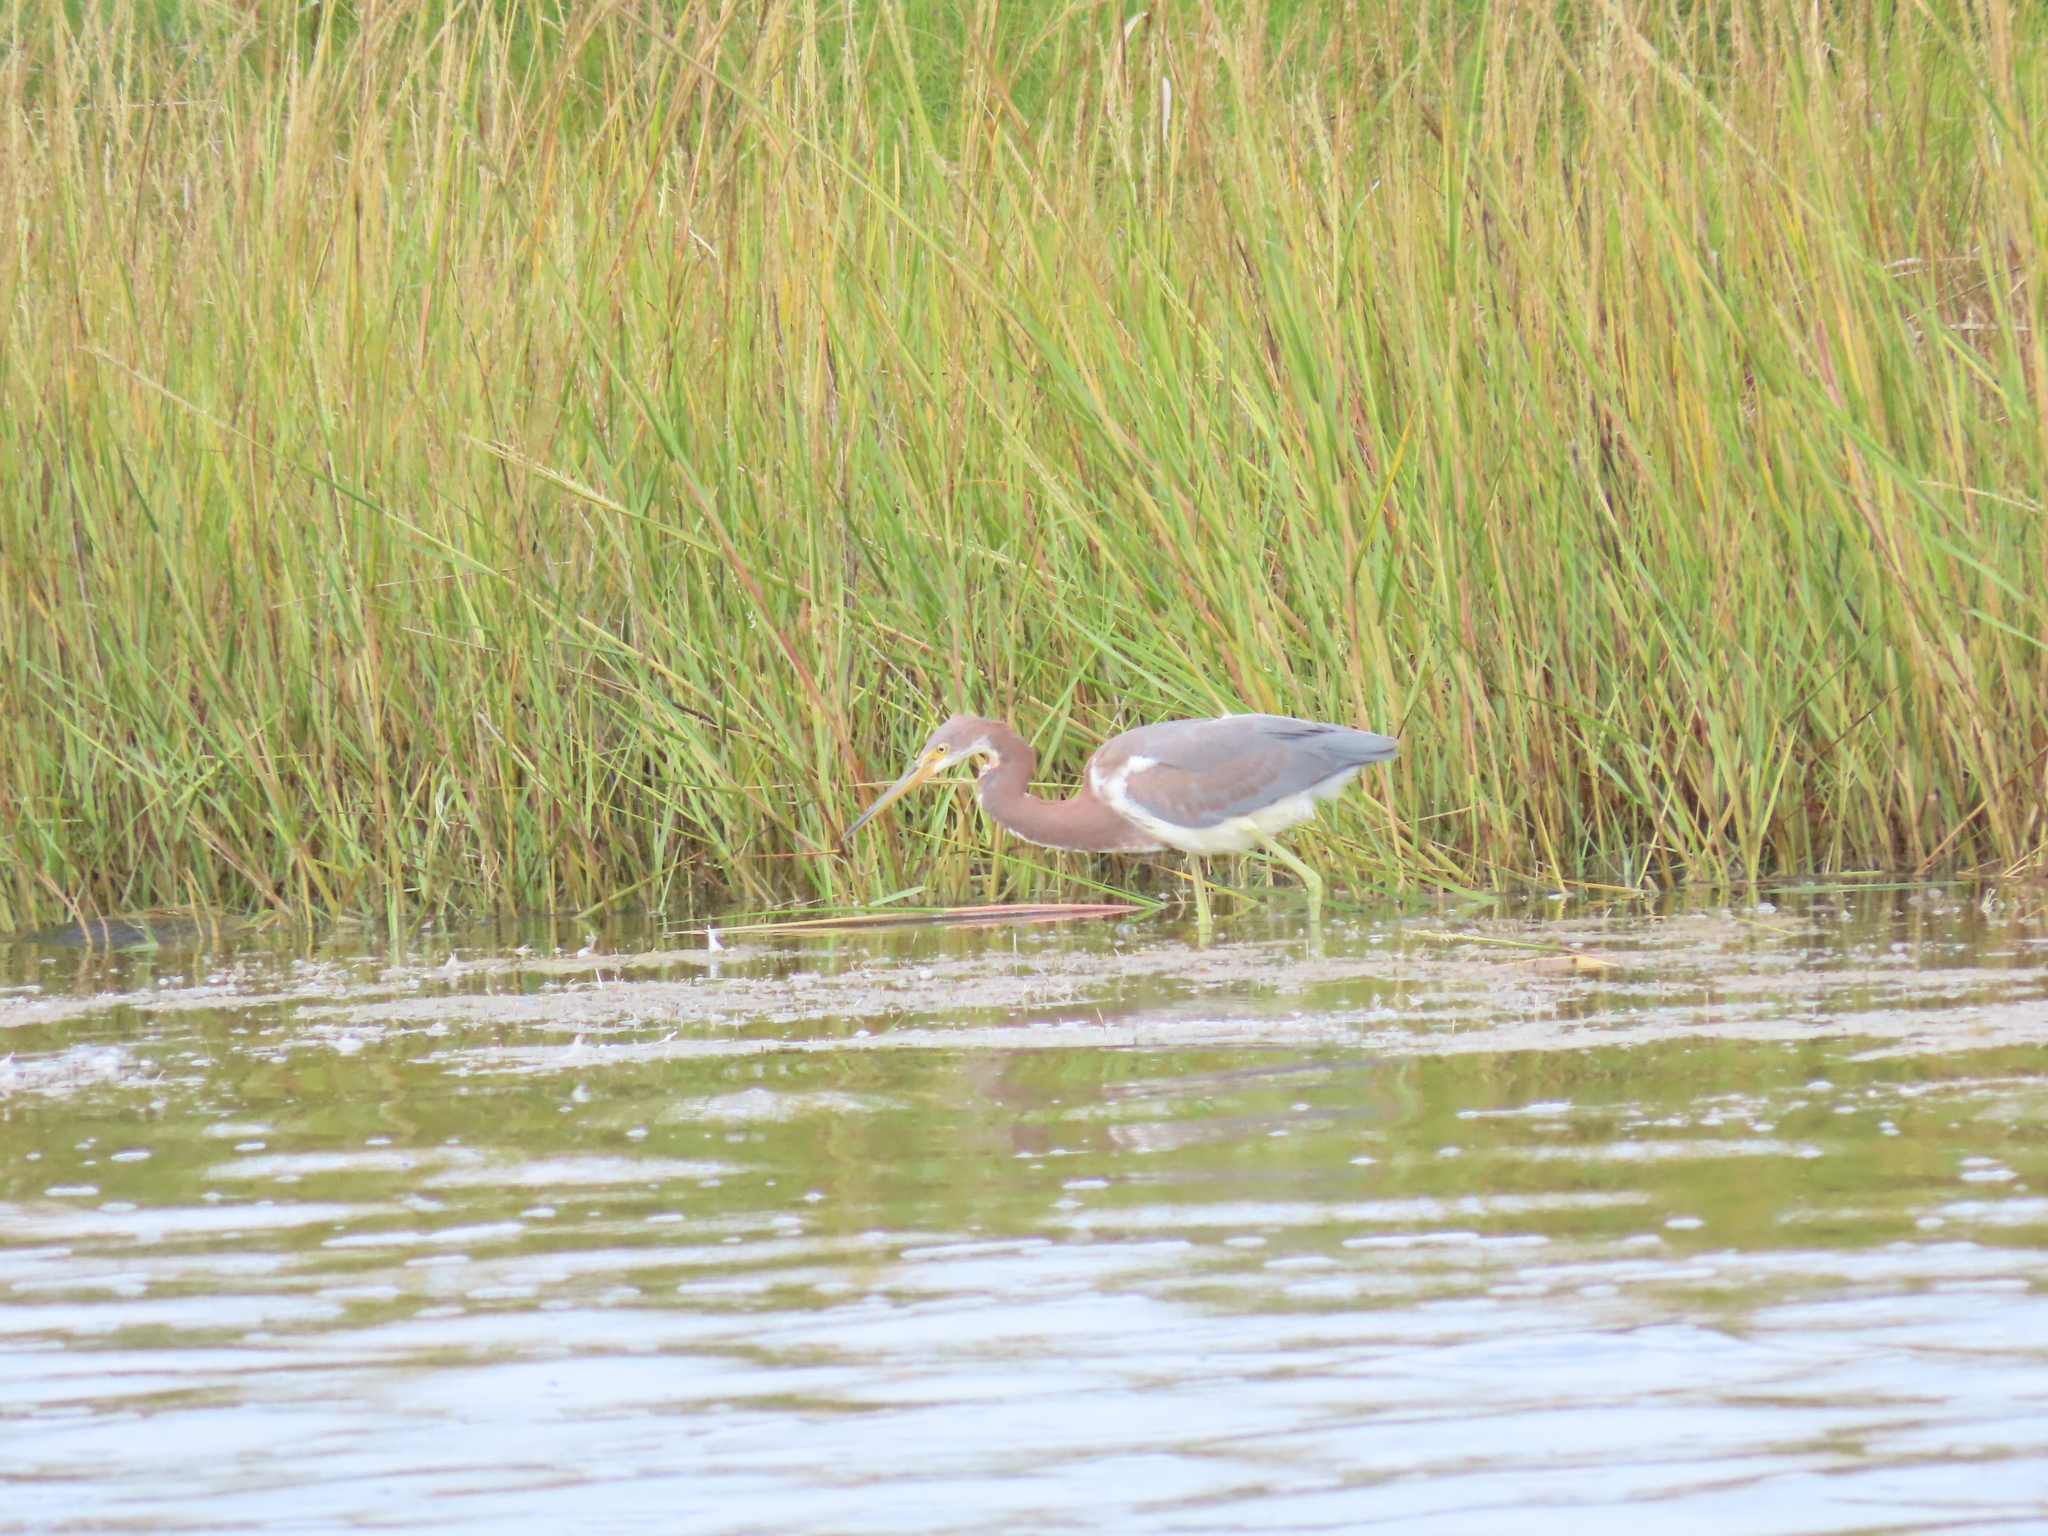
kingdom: Animalia
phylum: Chordata
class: Aves
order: Pelecaniformes
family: Ardeidae
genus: Egretta
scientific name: Egretta tricolor
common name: Tricolored heron
